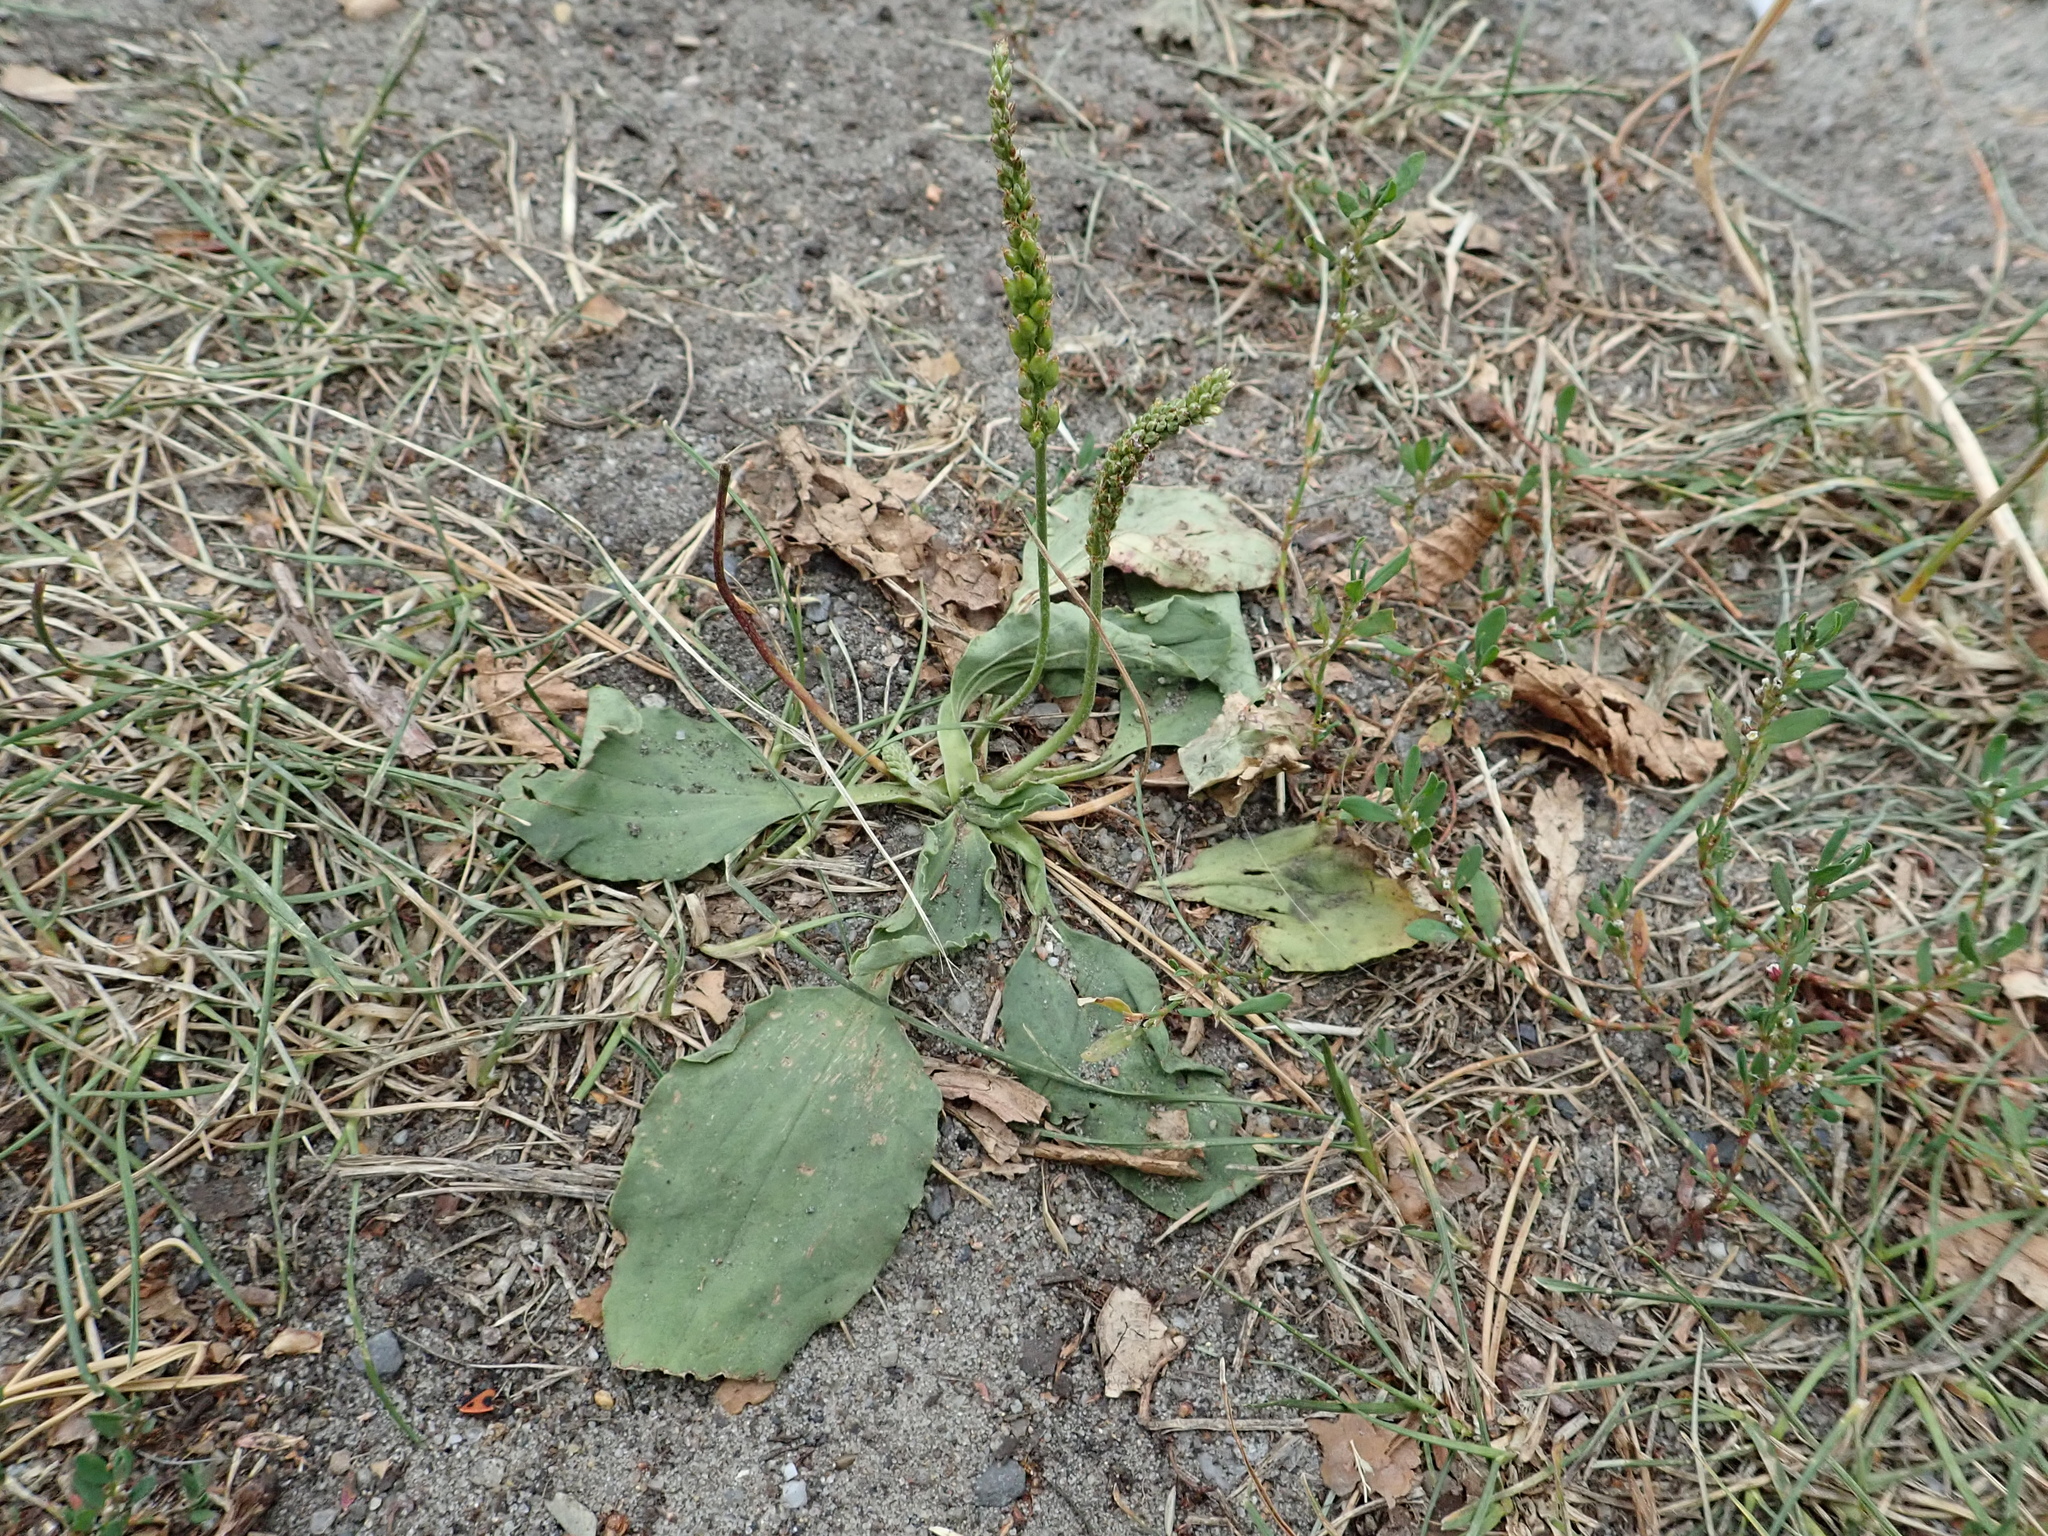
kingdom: Plantae
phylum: Tracheophyta
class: Magnoliopsida
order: Lamiales
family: Plantaginaceae
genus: Plantago
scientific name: Plantago major
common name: Common plantain
